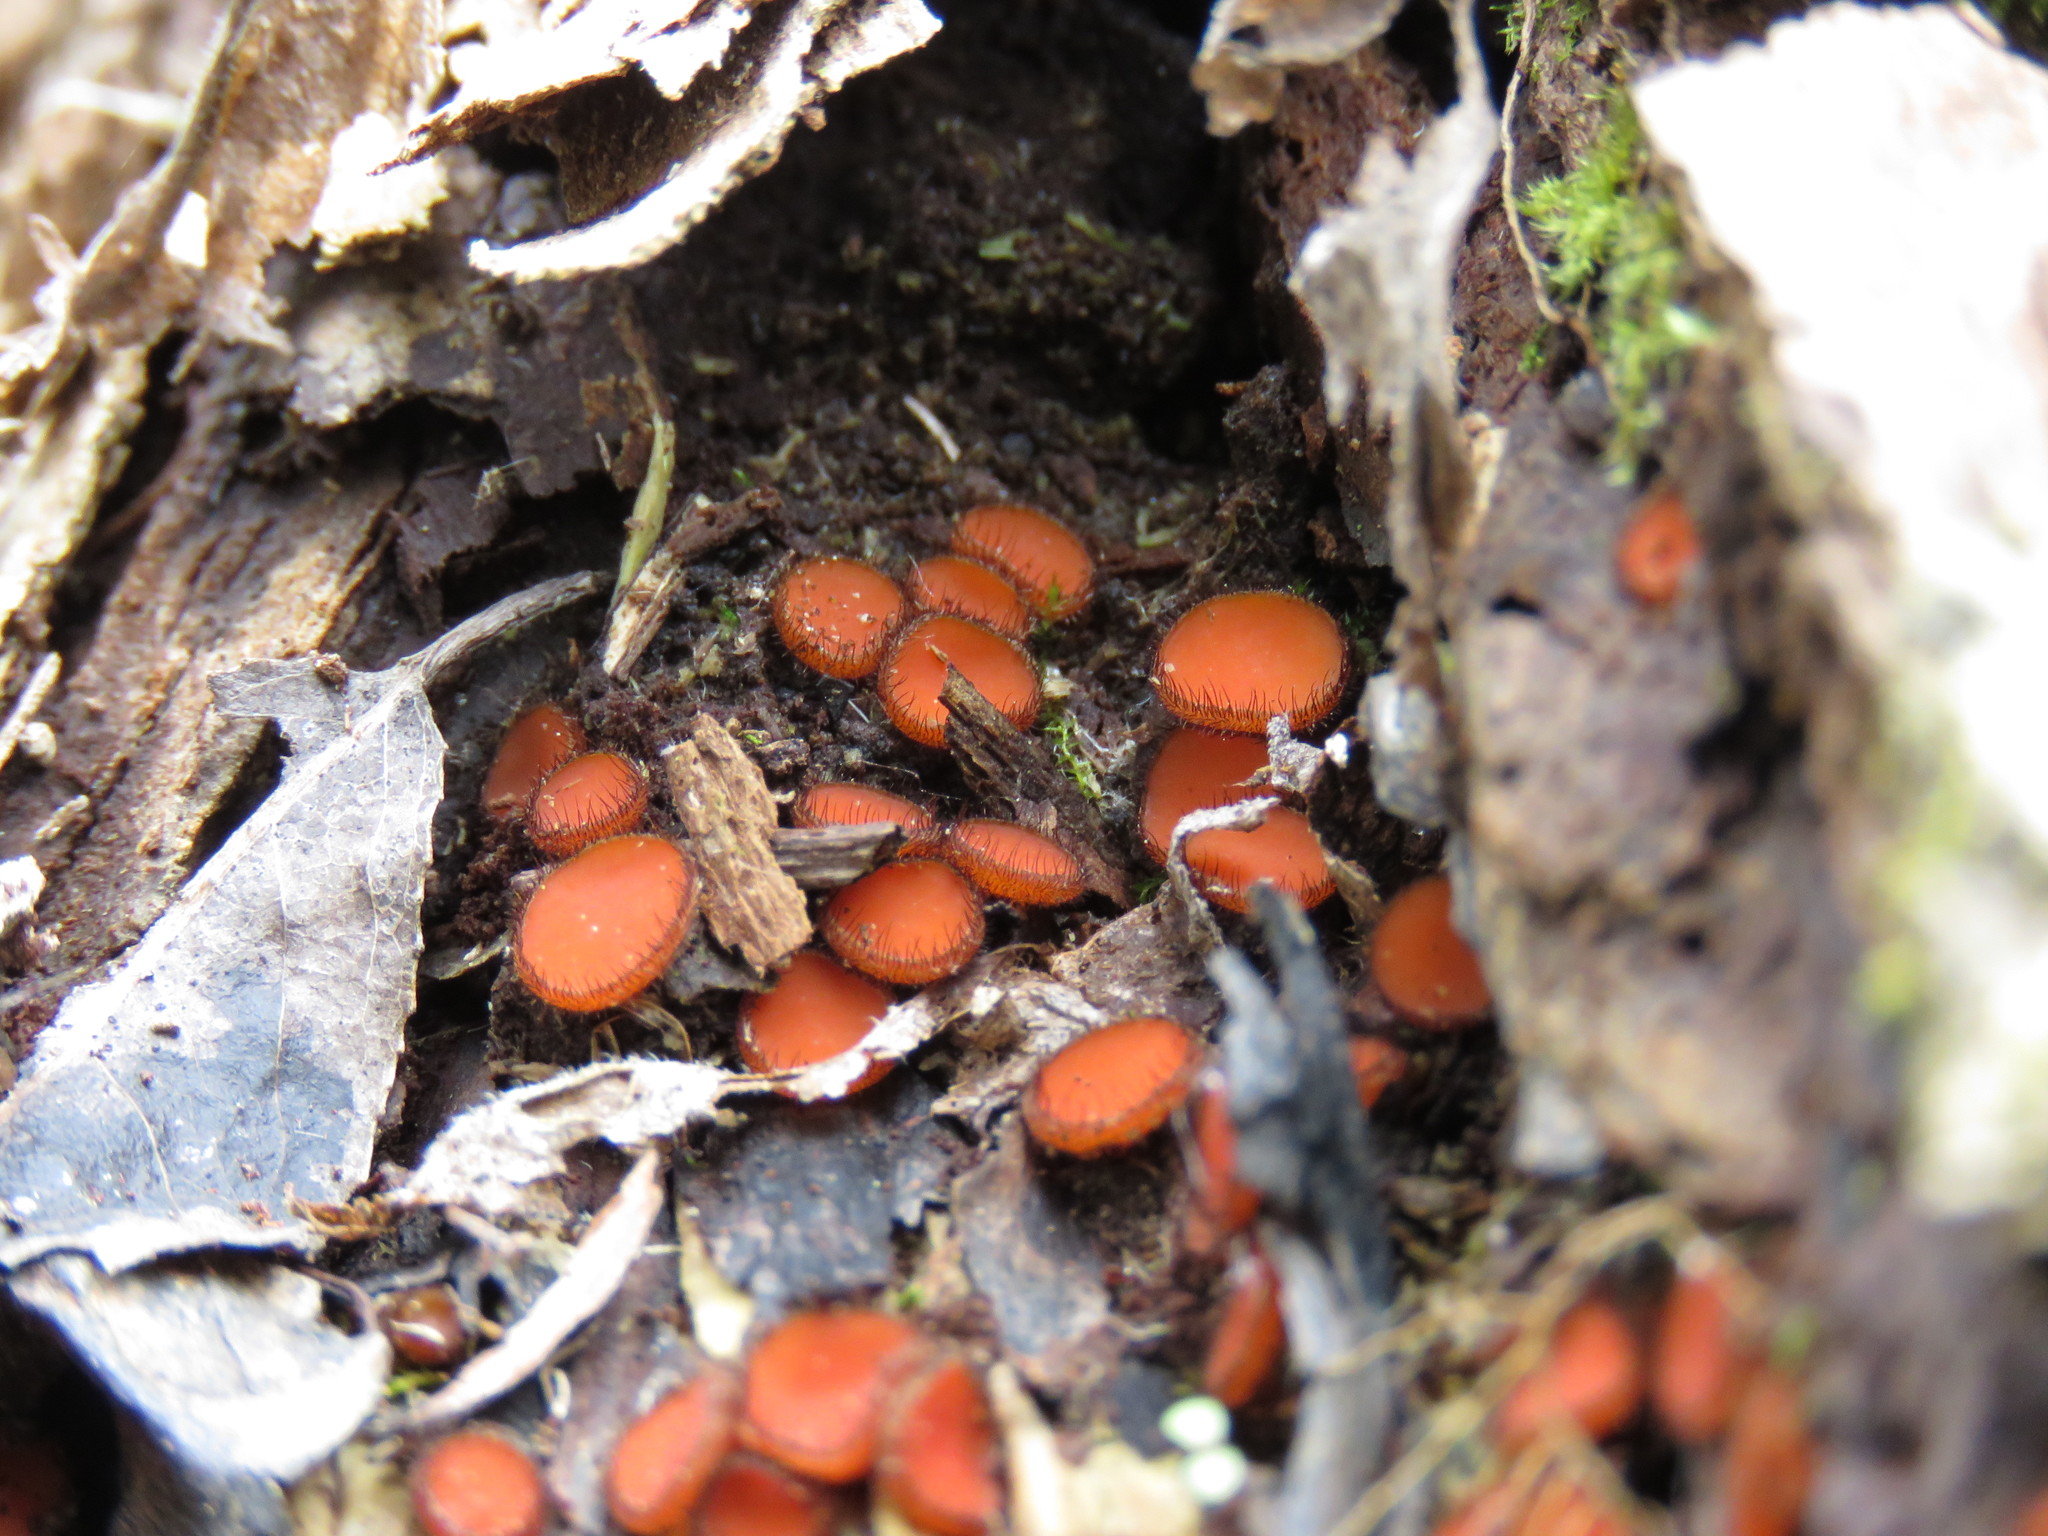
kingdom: Fungi
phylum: Ascomycota
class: Pezizomycetes
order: Pezizales
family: Pyronemataceae
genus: Scutellinia
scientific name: Scutellinia scutellata
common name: Common eyelash
